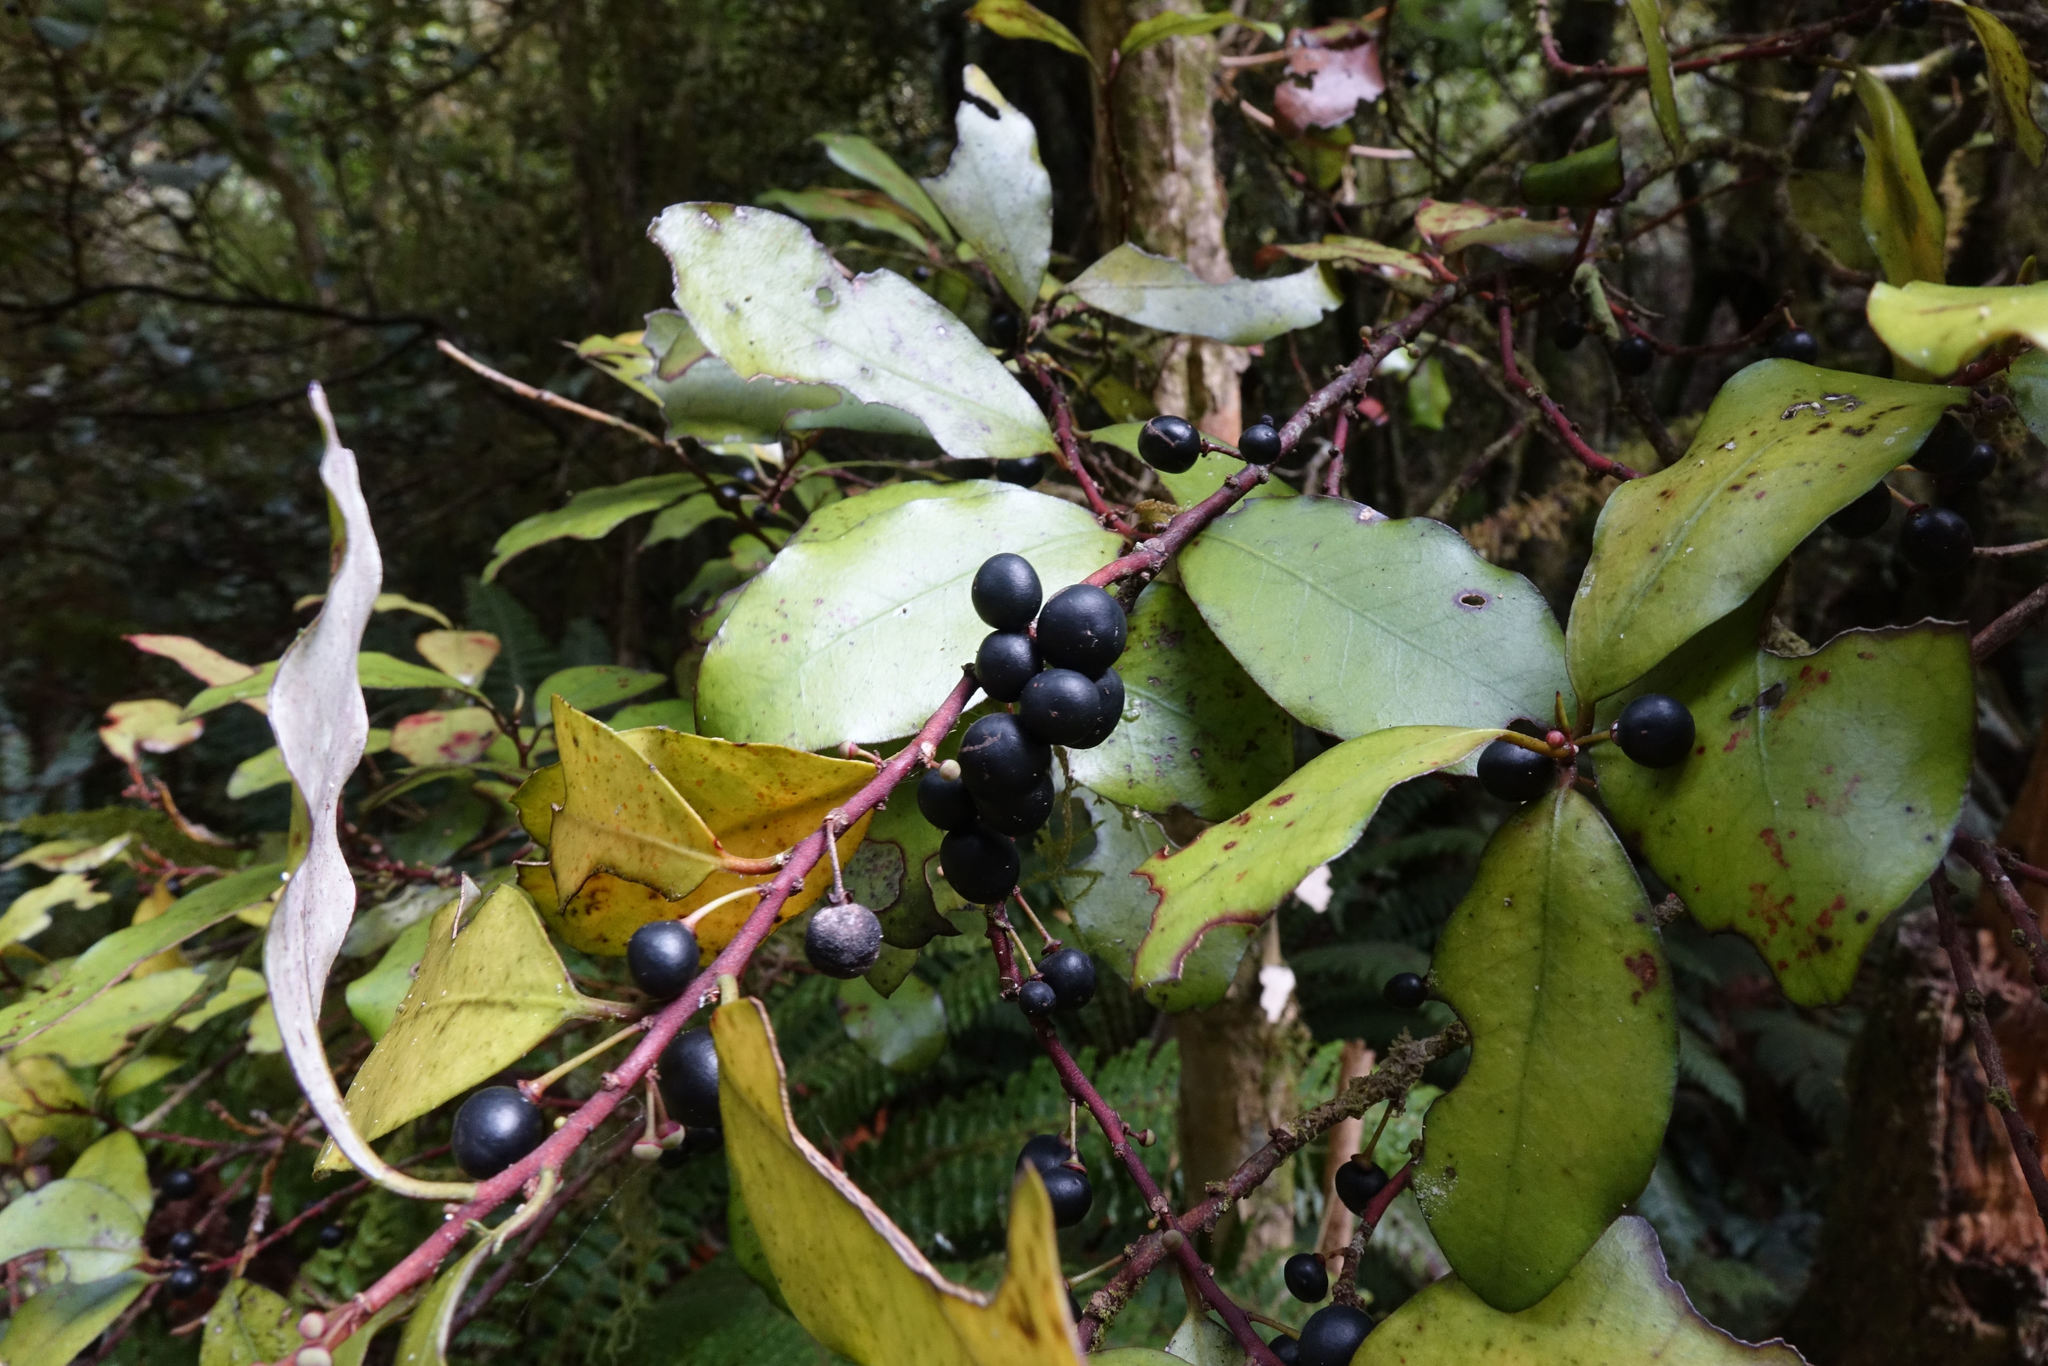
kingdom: Plantae
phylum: Tracheophyta
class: Magnoliopsida
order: Canellales
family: Winteraceae
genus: Pseudowintera
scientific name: Pseudowintera colorata
